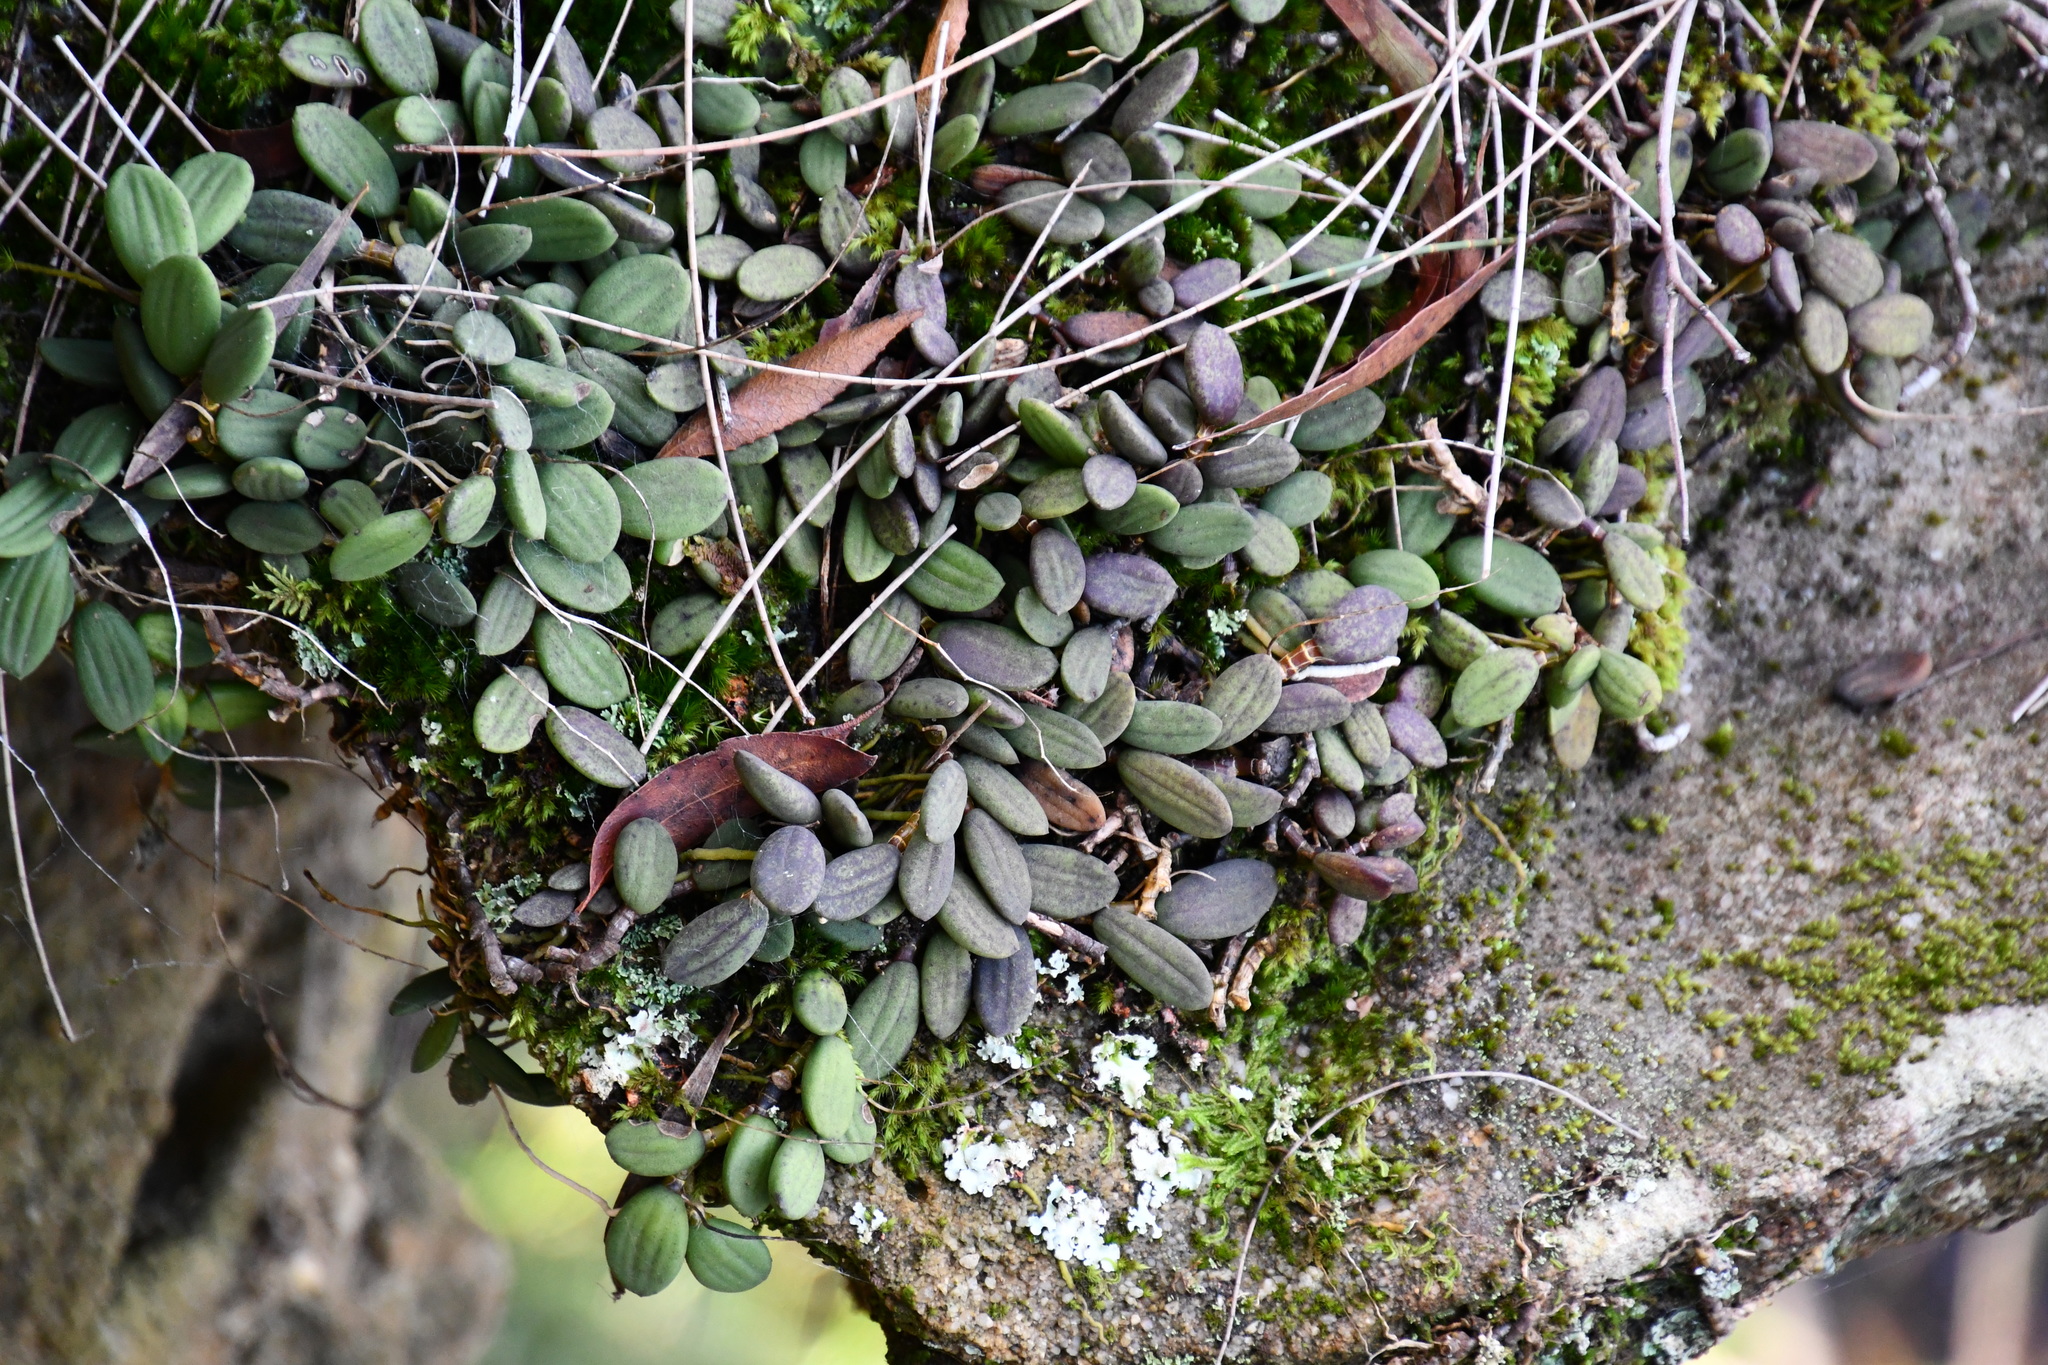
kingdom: Plantae
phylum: Tracheophyta
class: Liliopsida
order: Asparagales
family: Orchidaceae
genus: Dendrobium
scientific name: Dendrobium linguiforme
